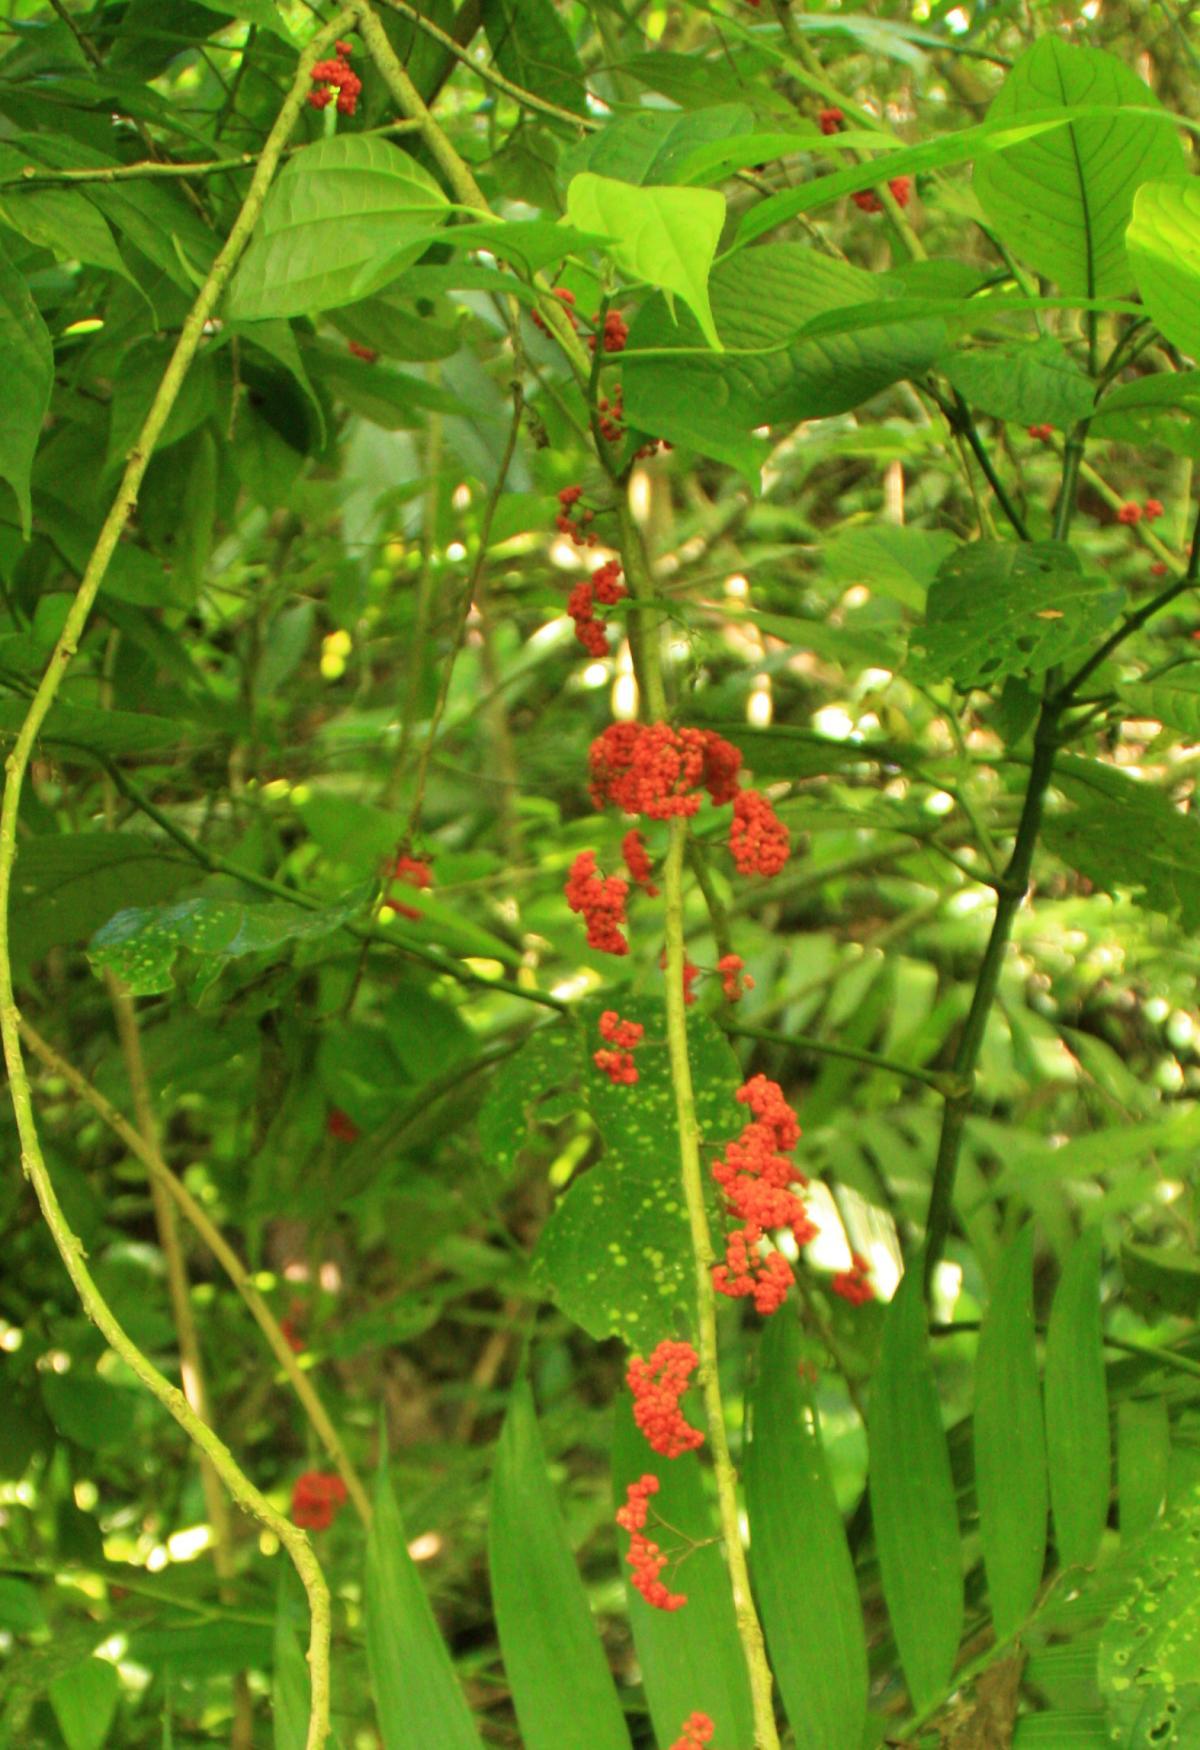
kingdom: Plantae
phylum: Tracheophyta
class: Magnoliopsida
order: Rosales
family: Urticaceae
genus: Urera
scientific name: Urera simplex
